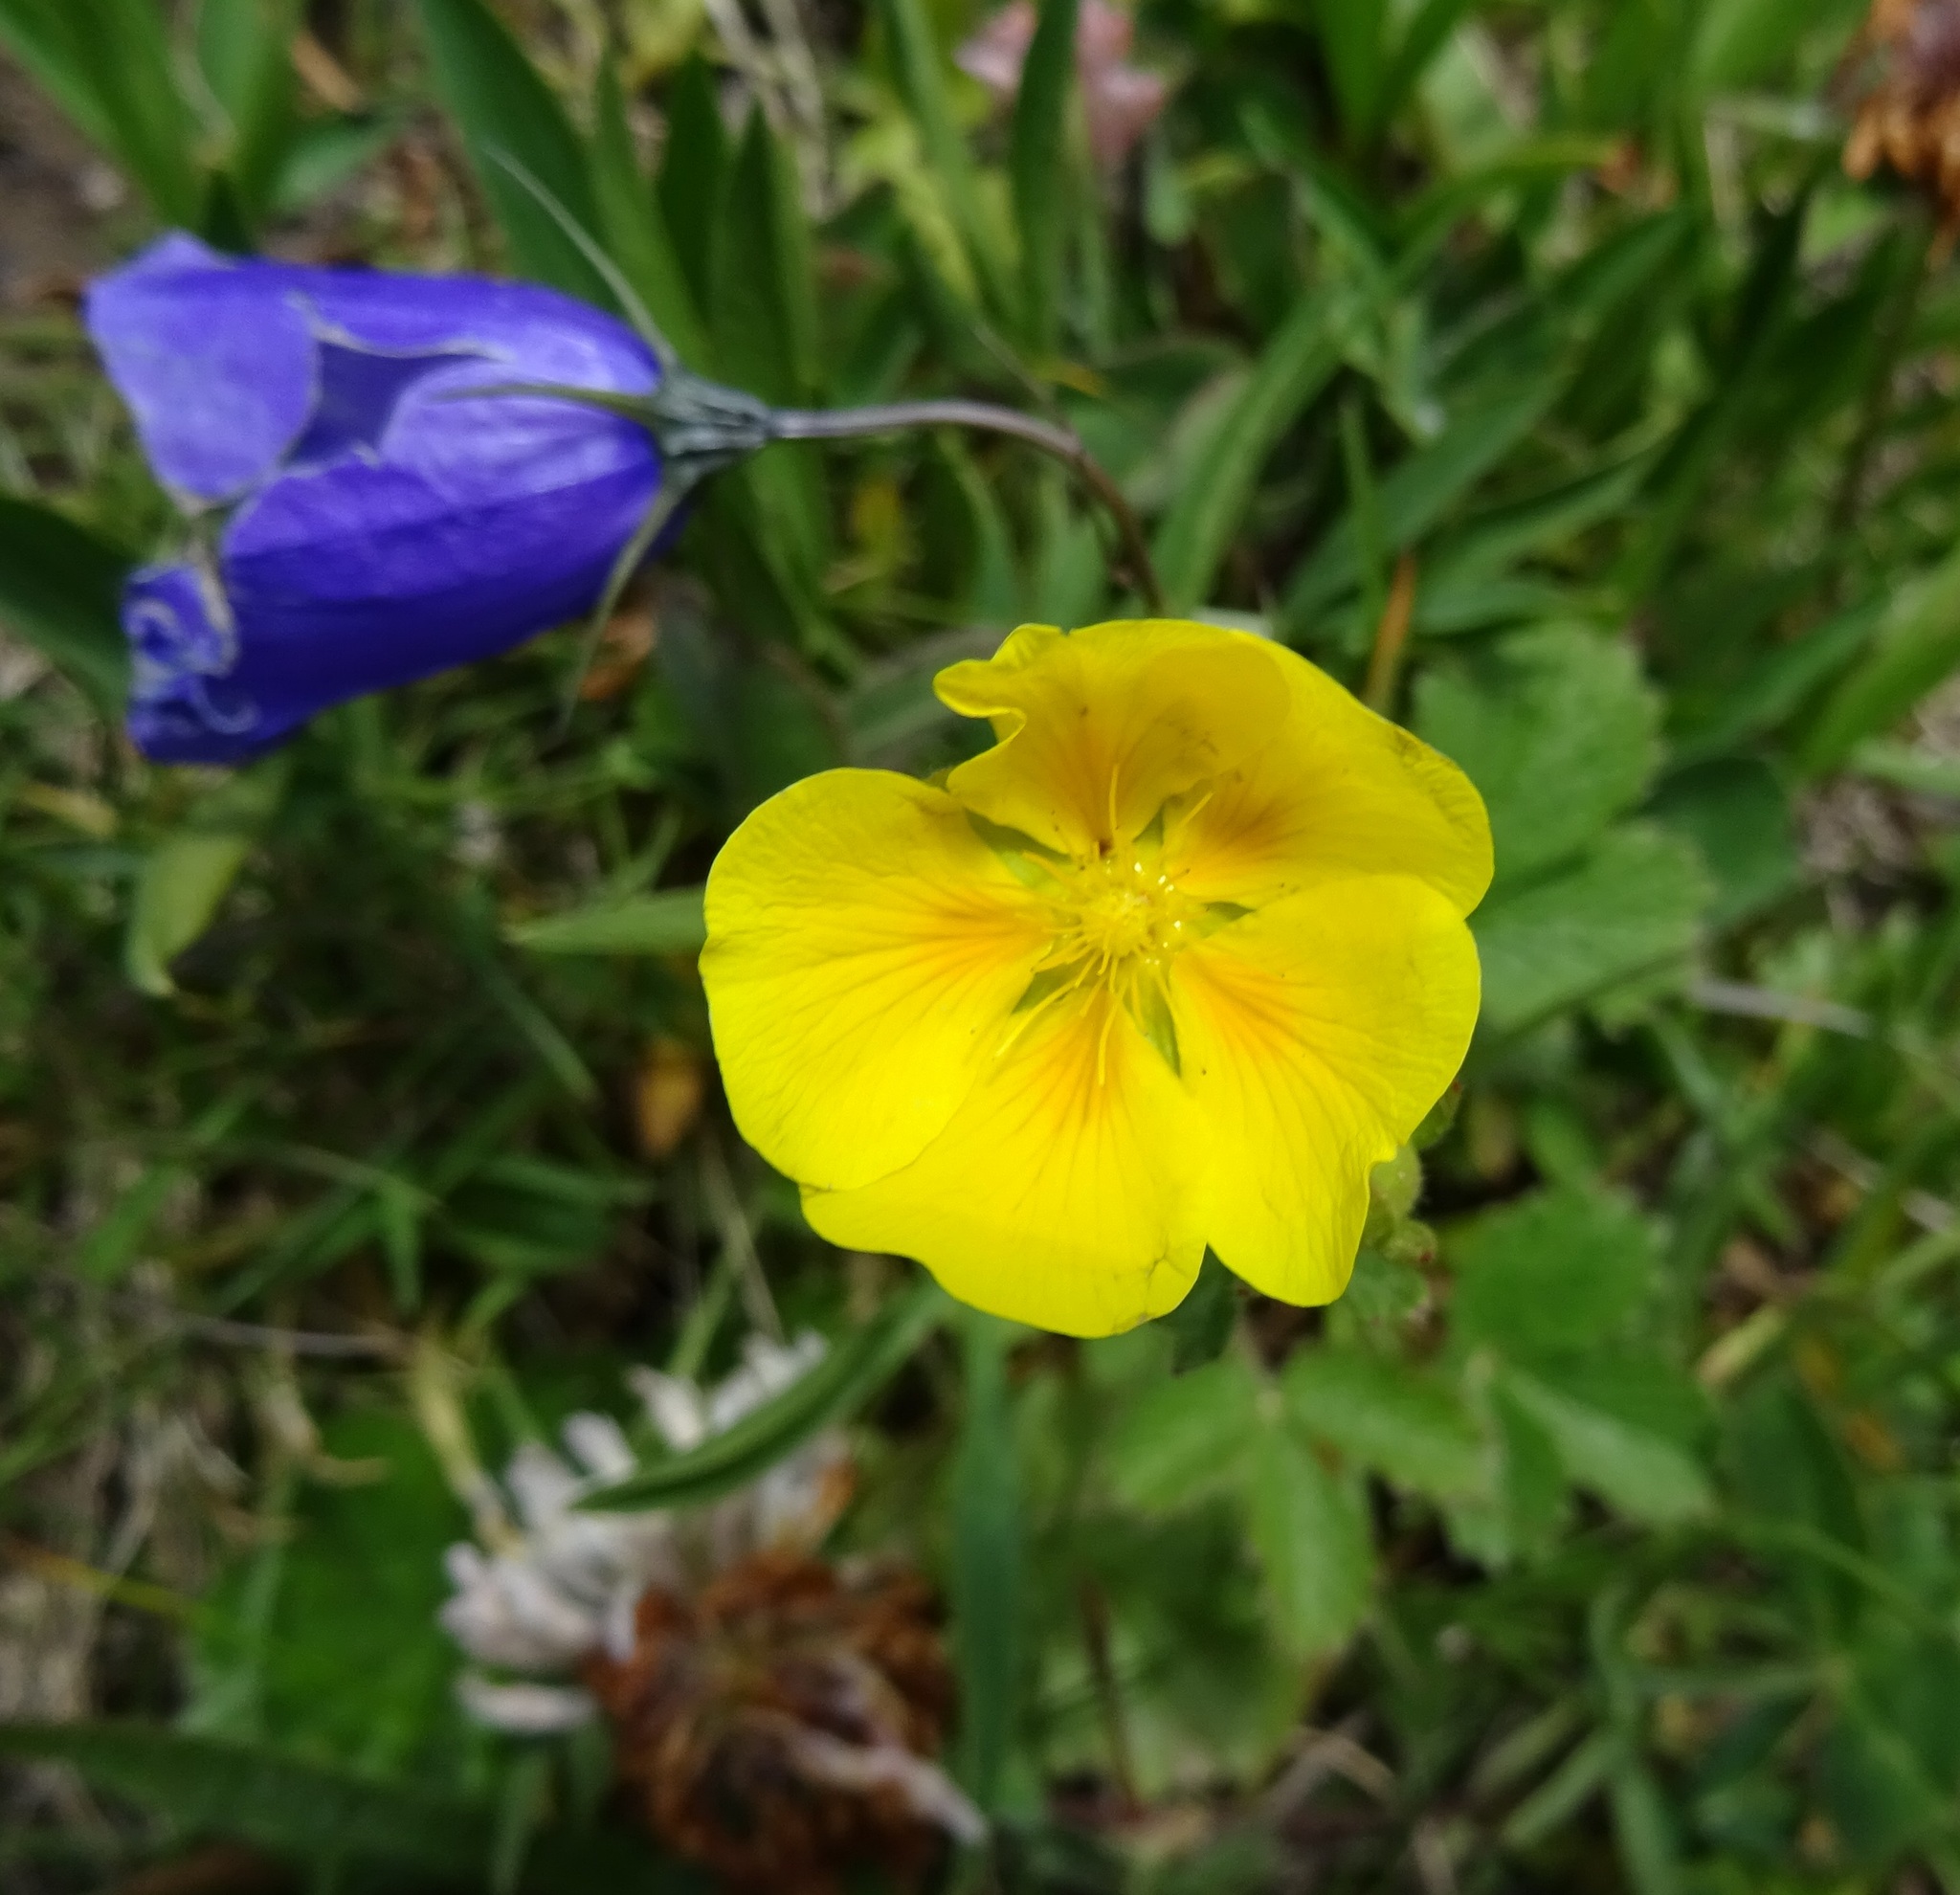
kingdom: Plantae
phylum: Tracheophyta
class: Magnoliopsida
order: Rosales
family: Rosaceae
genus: Potentilla
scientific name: Potentilla aurea
